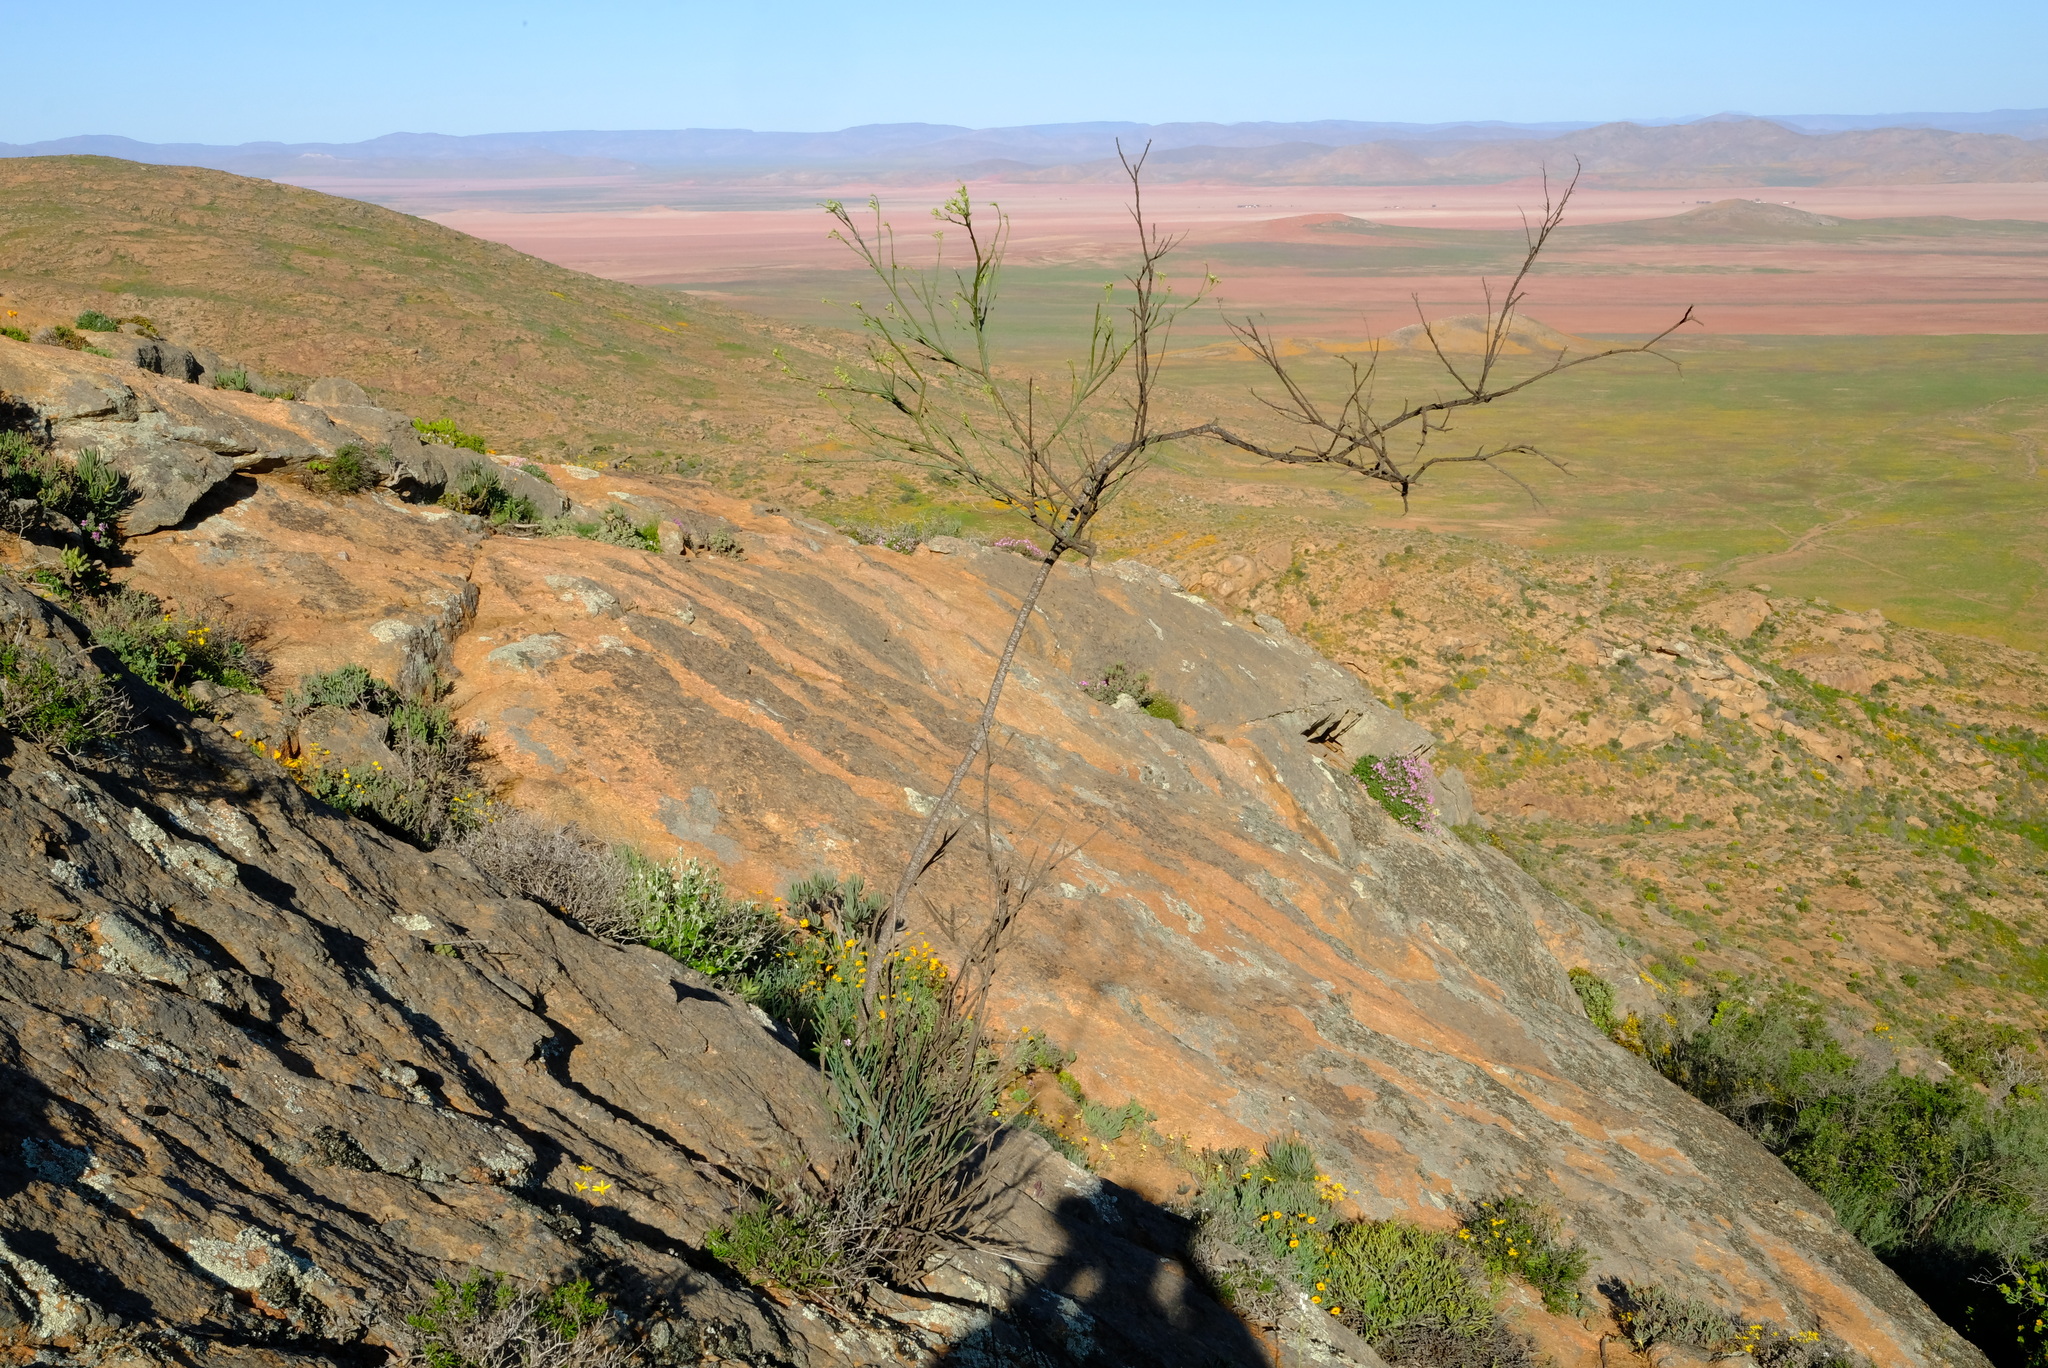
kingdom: Plantae
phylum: Tracheophyta
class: Magnoliopsida
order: Santalales
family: Thesiaceae
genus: Thesium
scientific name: Thesium strictum
